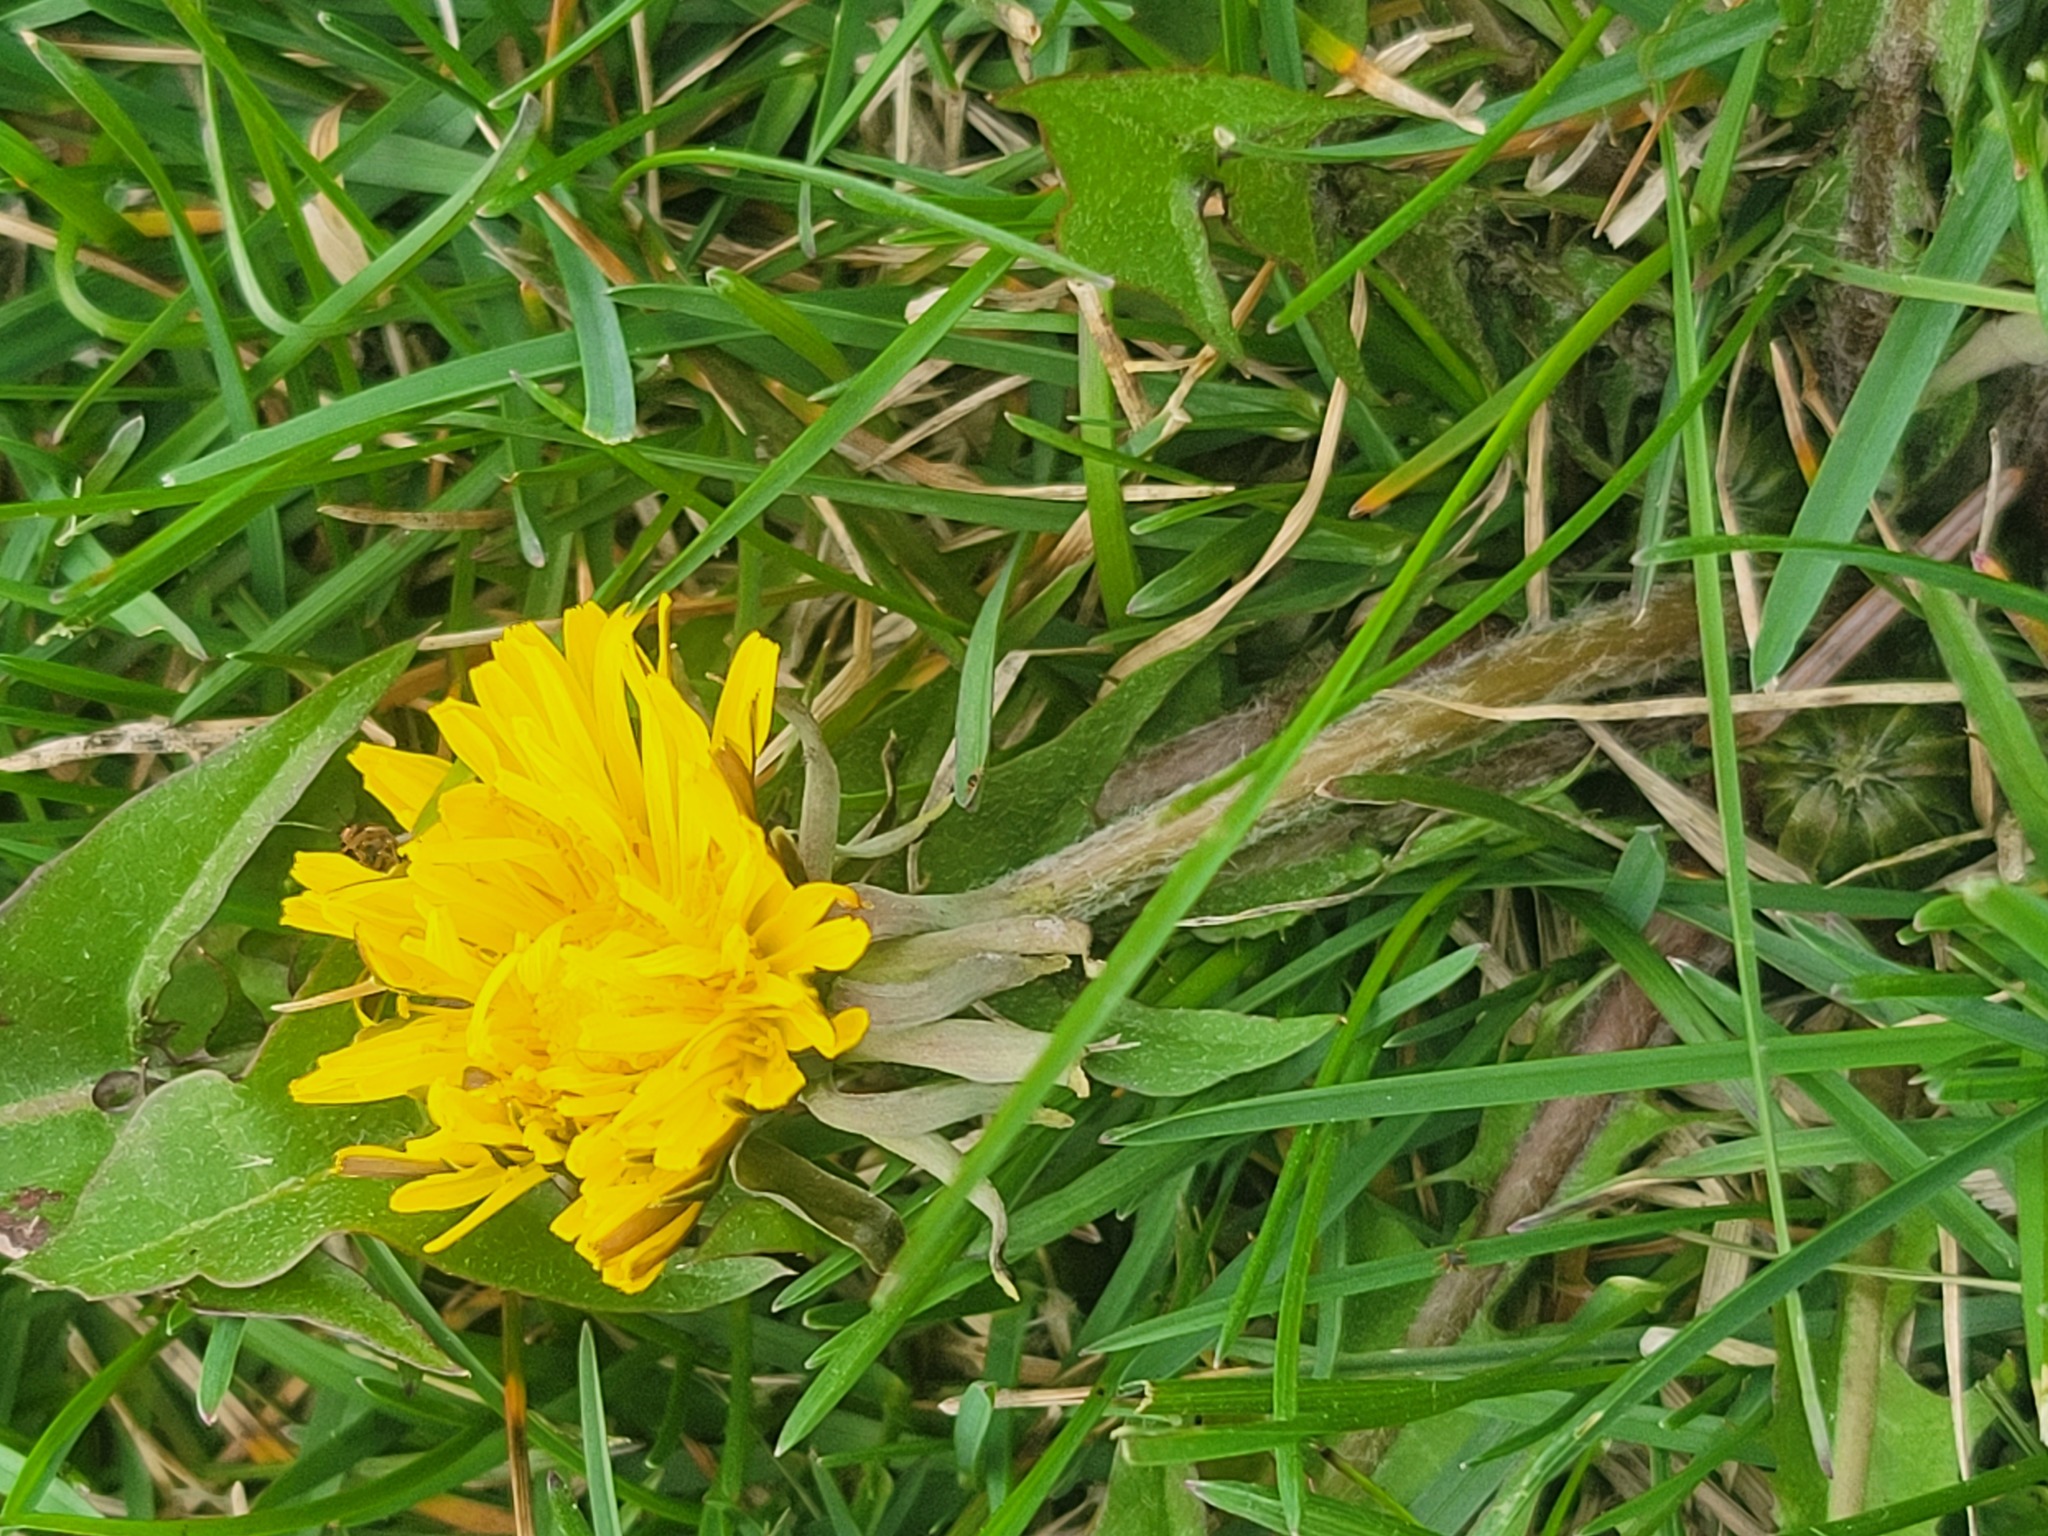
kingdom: Plantae
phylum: Tracheophyta
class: Magnoliopsida
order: Asterales
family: Asteraceae
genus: Taraxacum
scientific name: Taraxacum officinale
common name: Common dandelion
